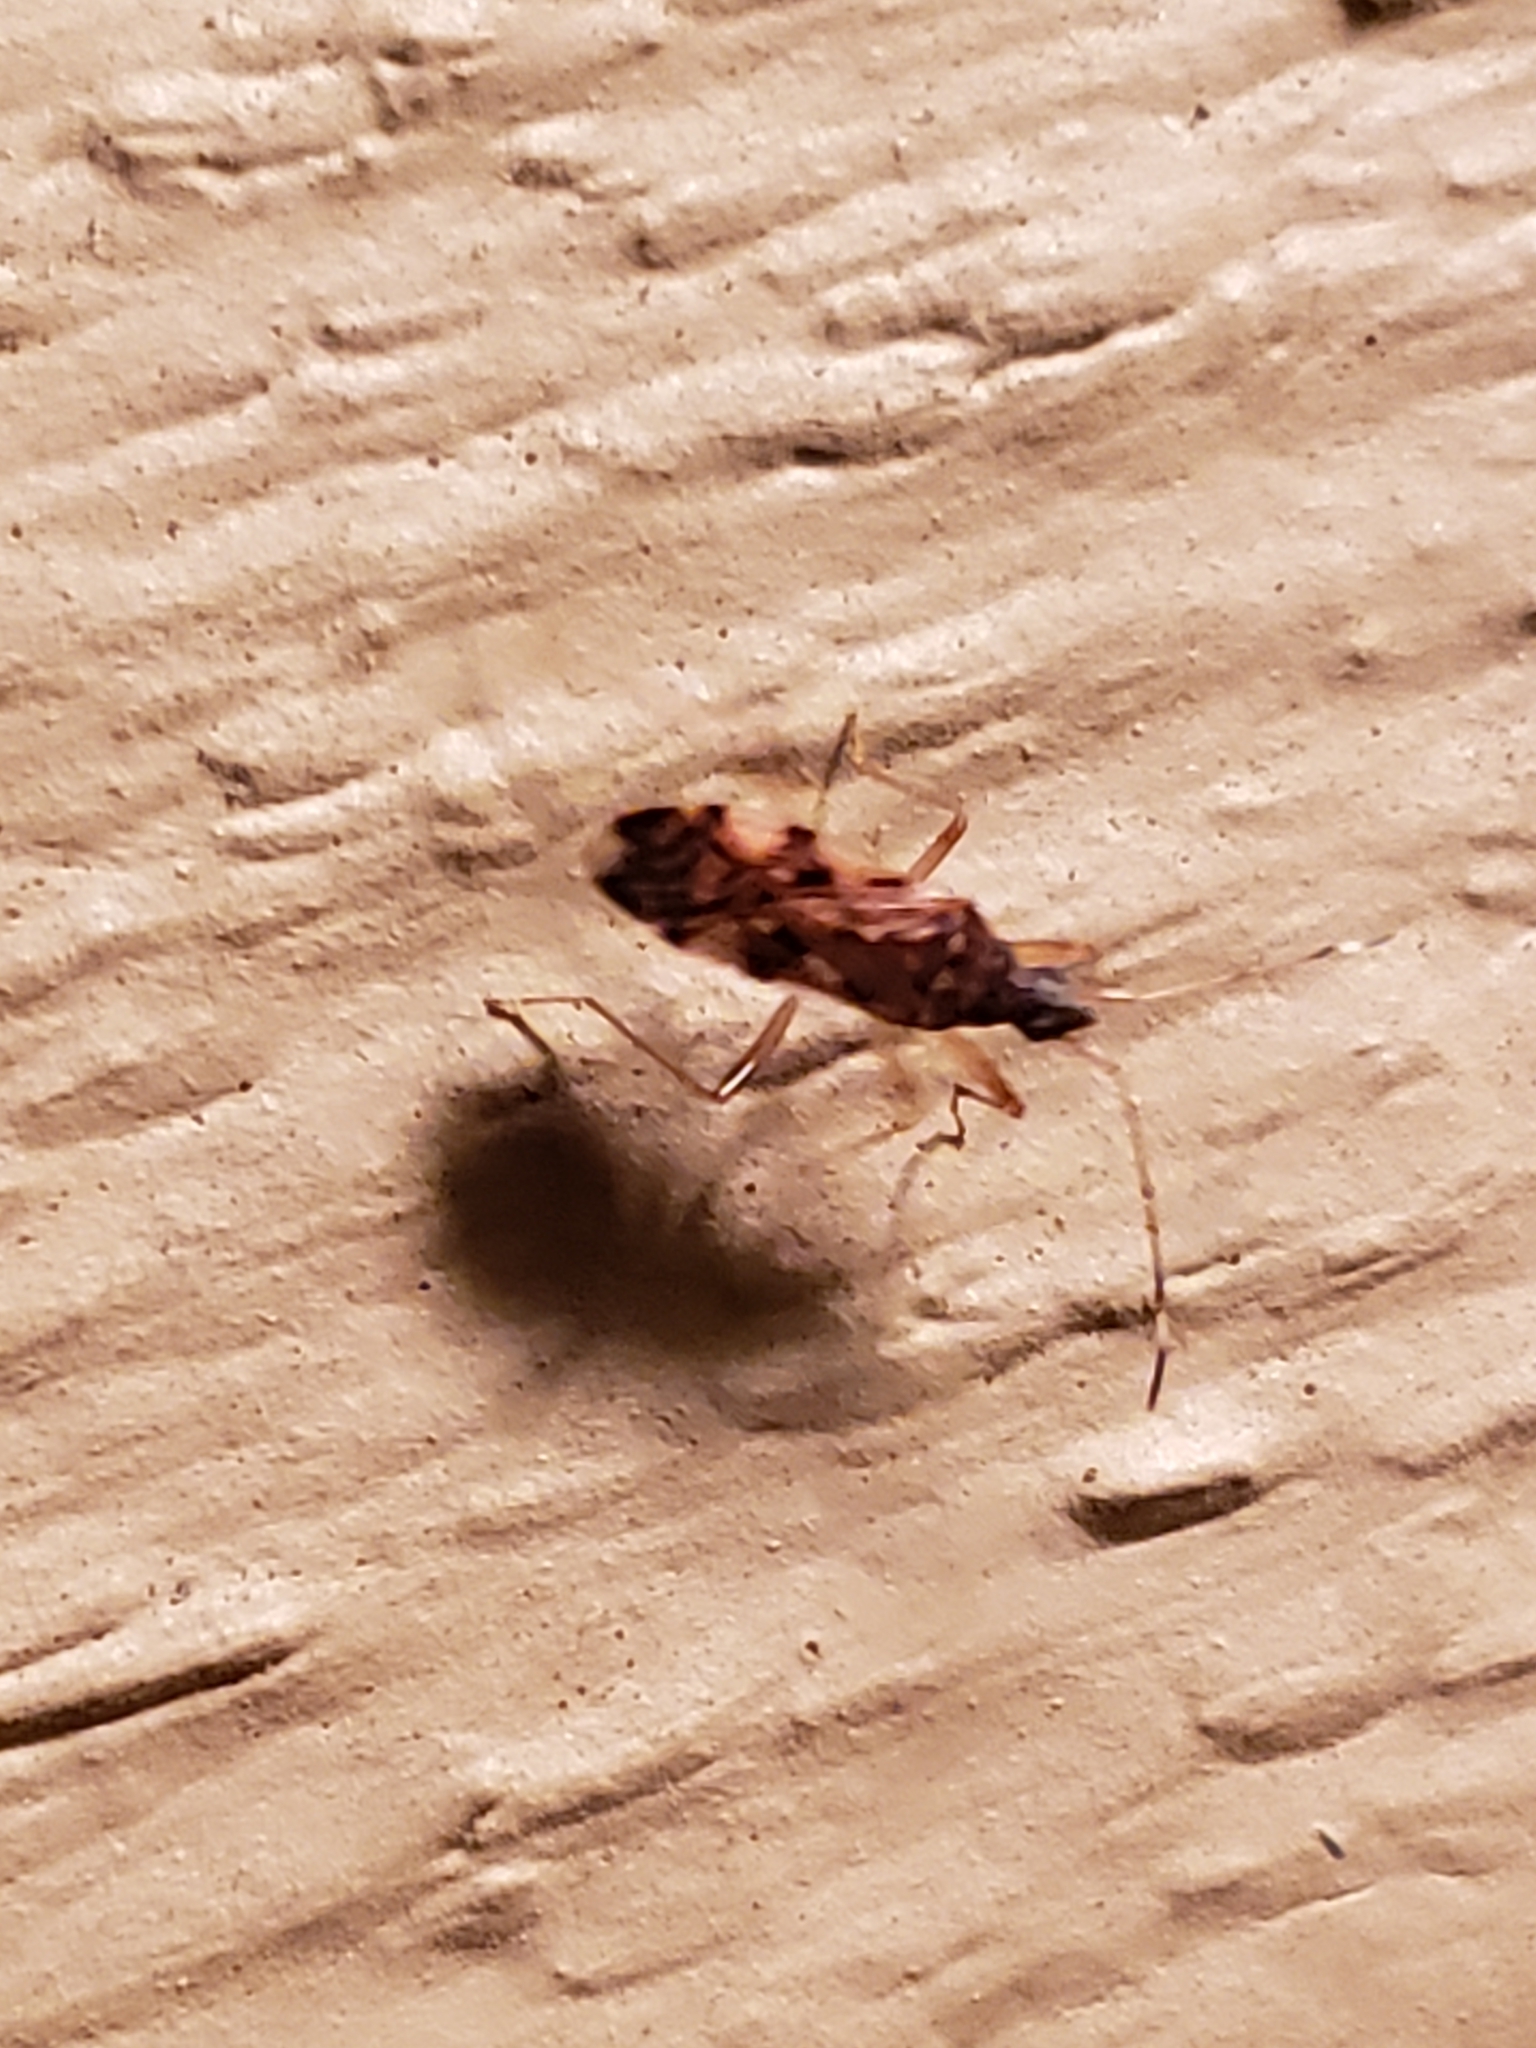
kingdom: Animalia
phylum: Arthropoda
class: Insecta
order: Hemiptera
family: Rhyparochromidae
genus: Ozophora
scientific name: Ozophora picturata
